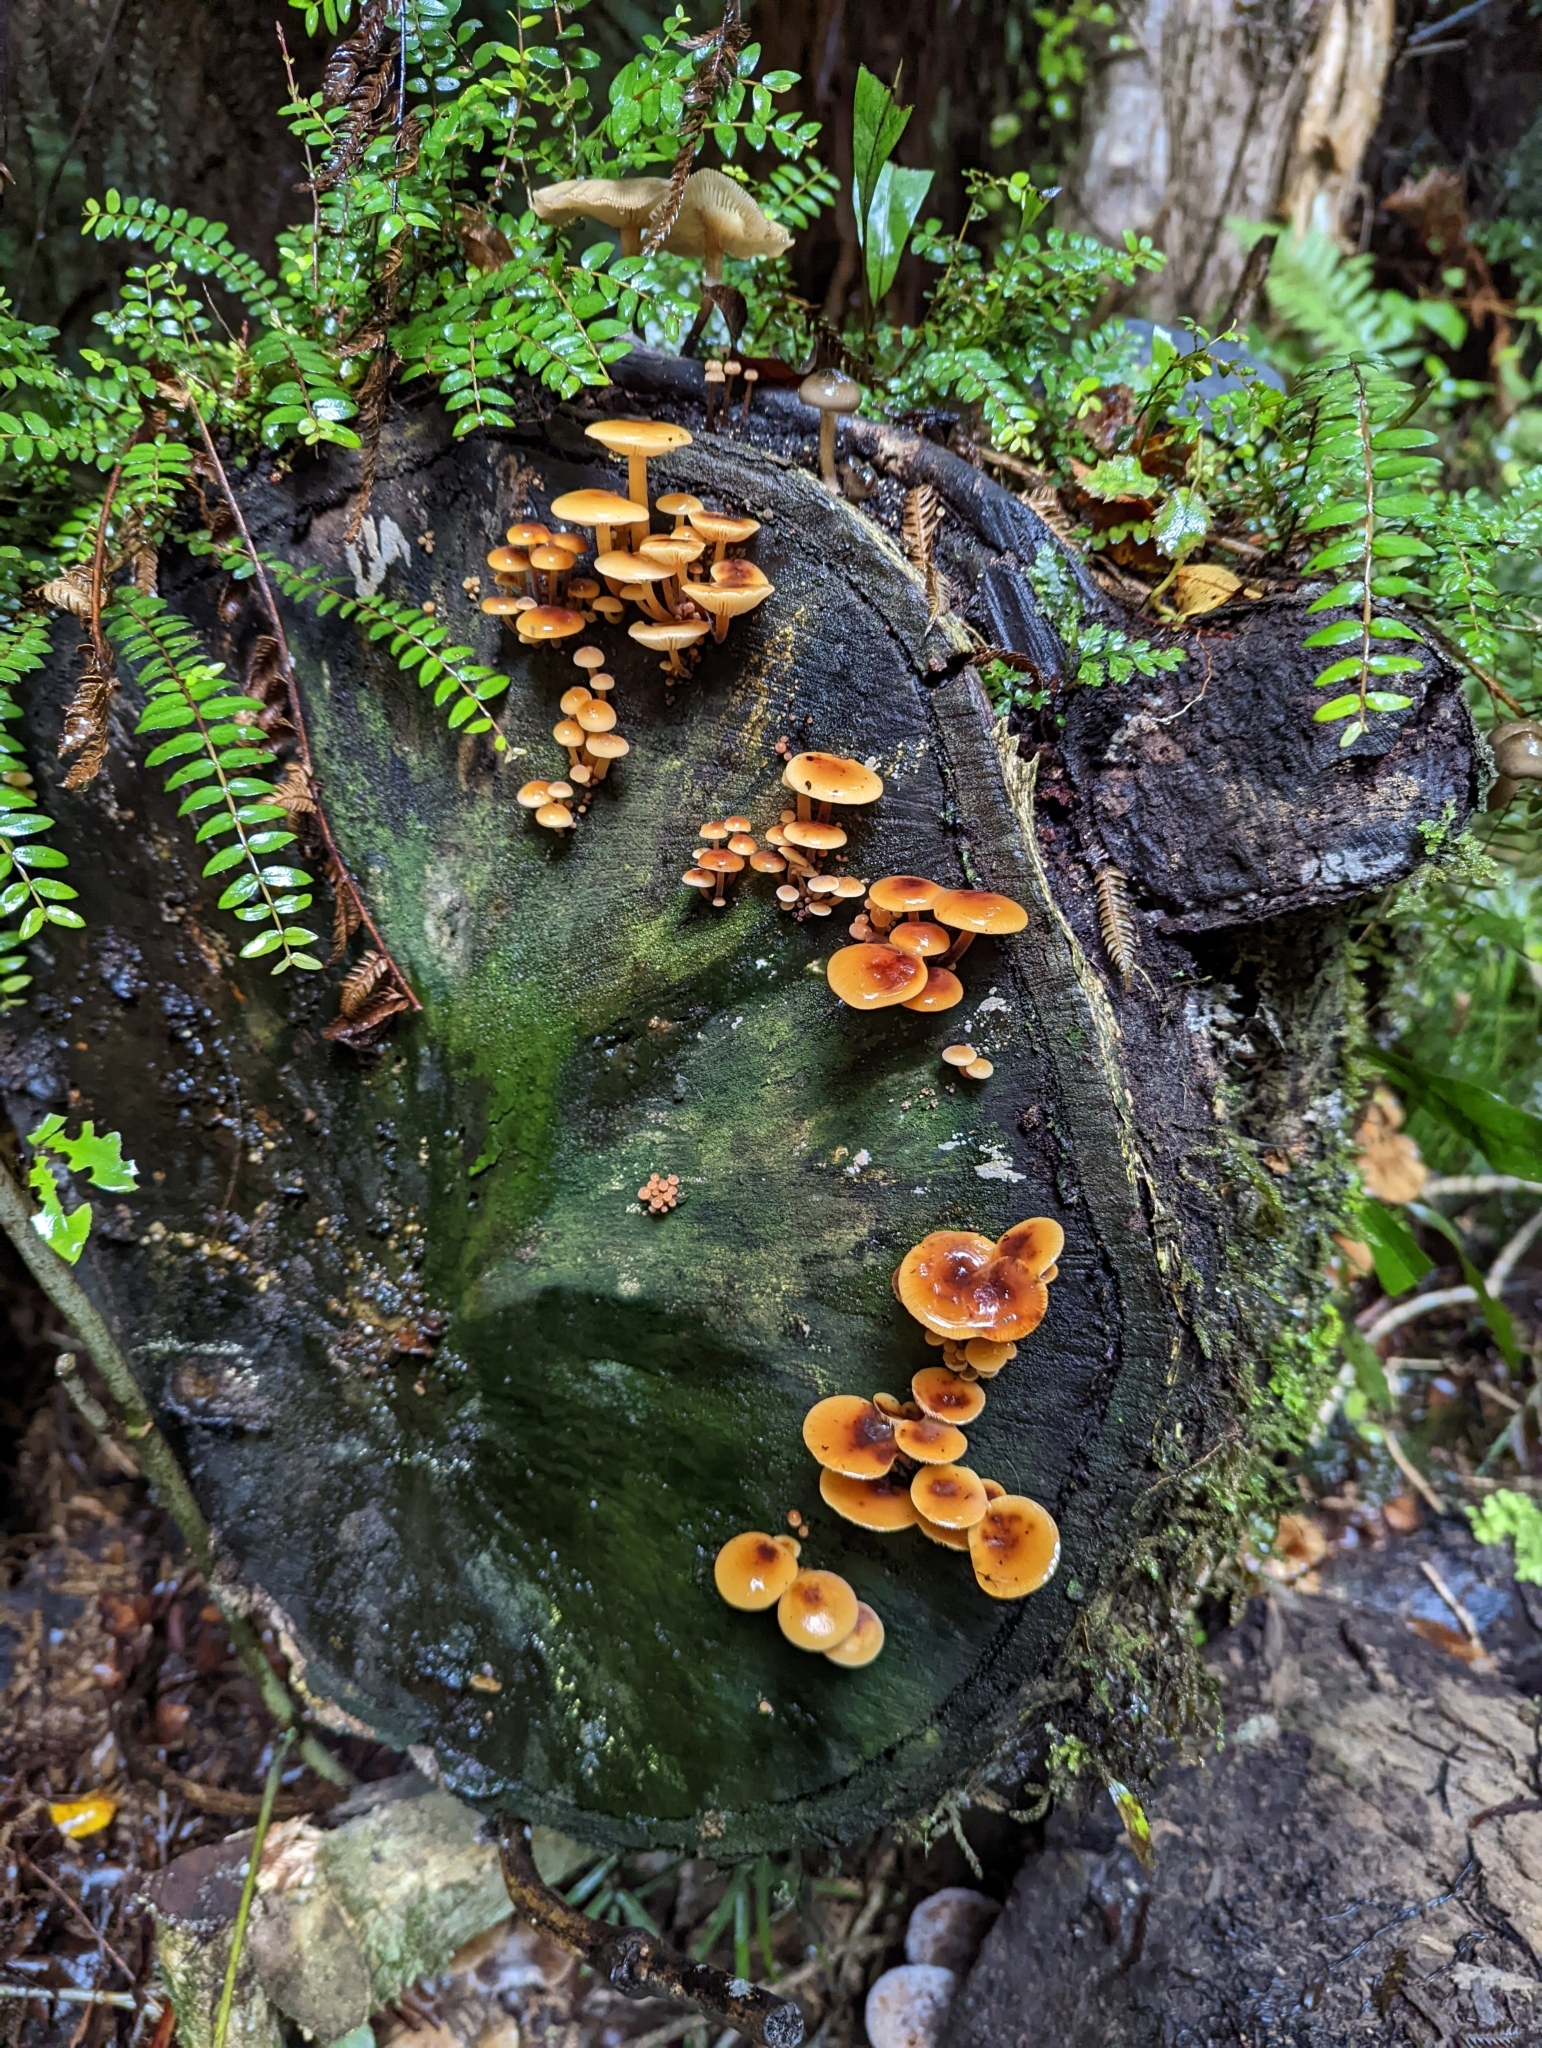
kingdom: Fungi
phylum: Basidiomycota
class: Agaricomycetes
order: Agaricales
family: Physalacriaceae
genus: Flammulina
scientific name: Flammulina velutipes
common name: Velvet shank
